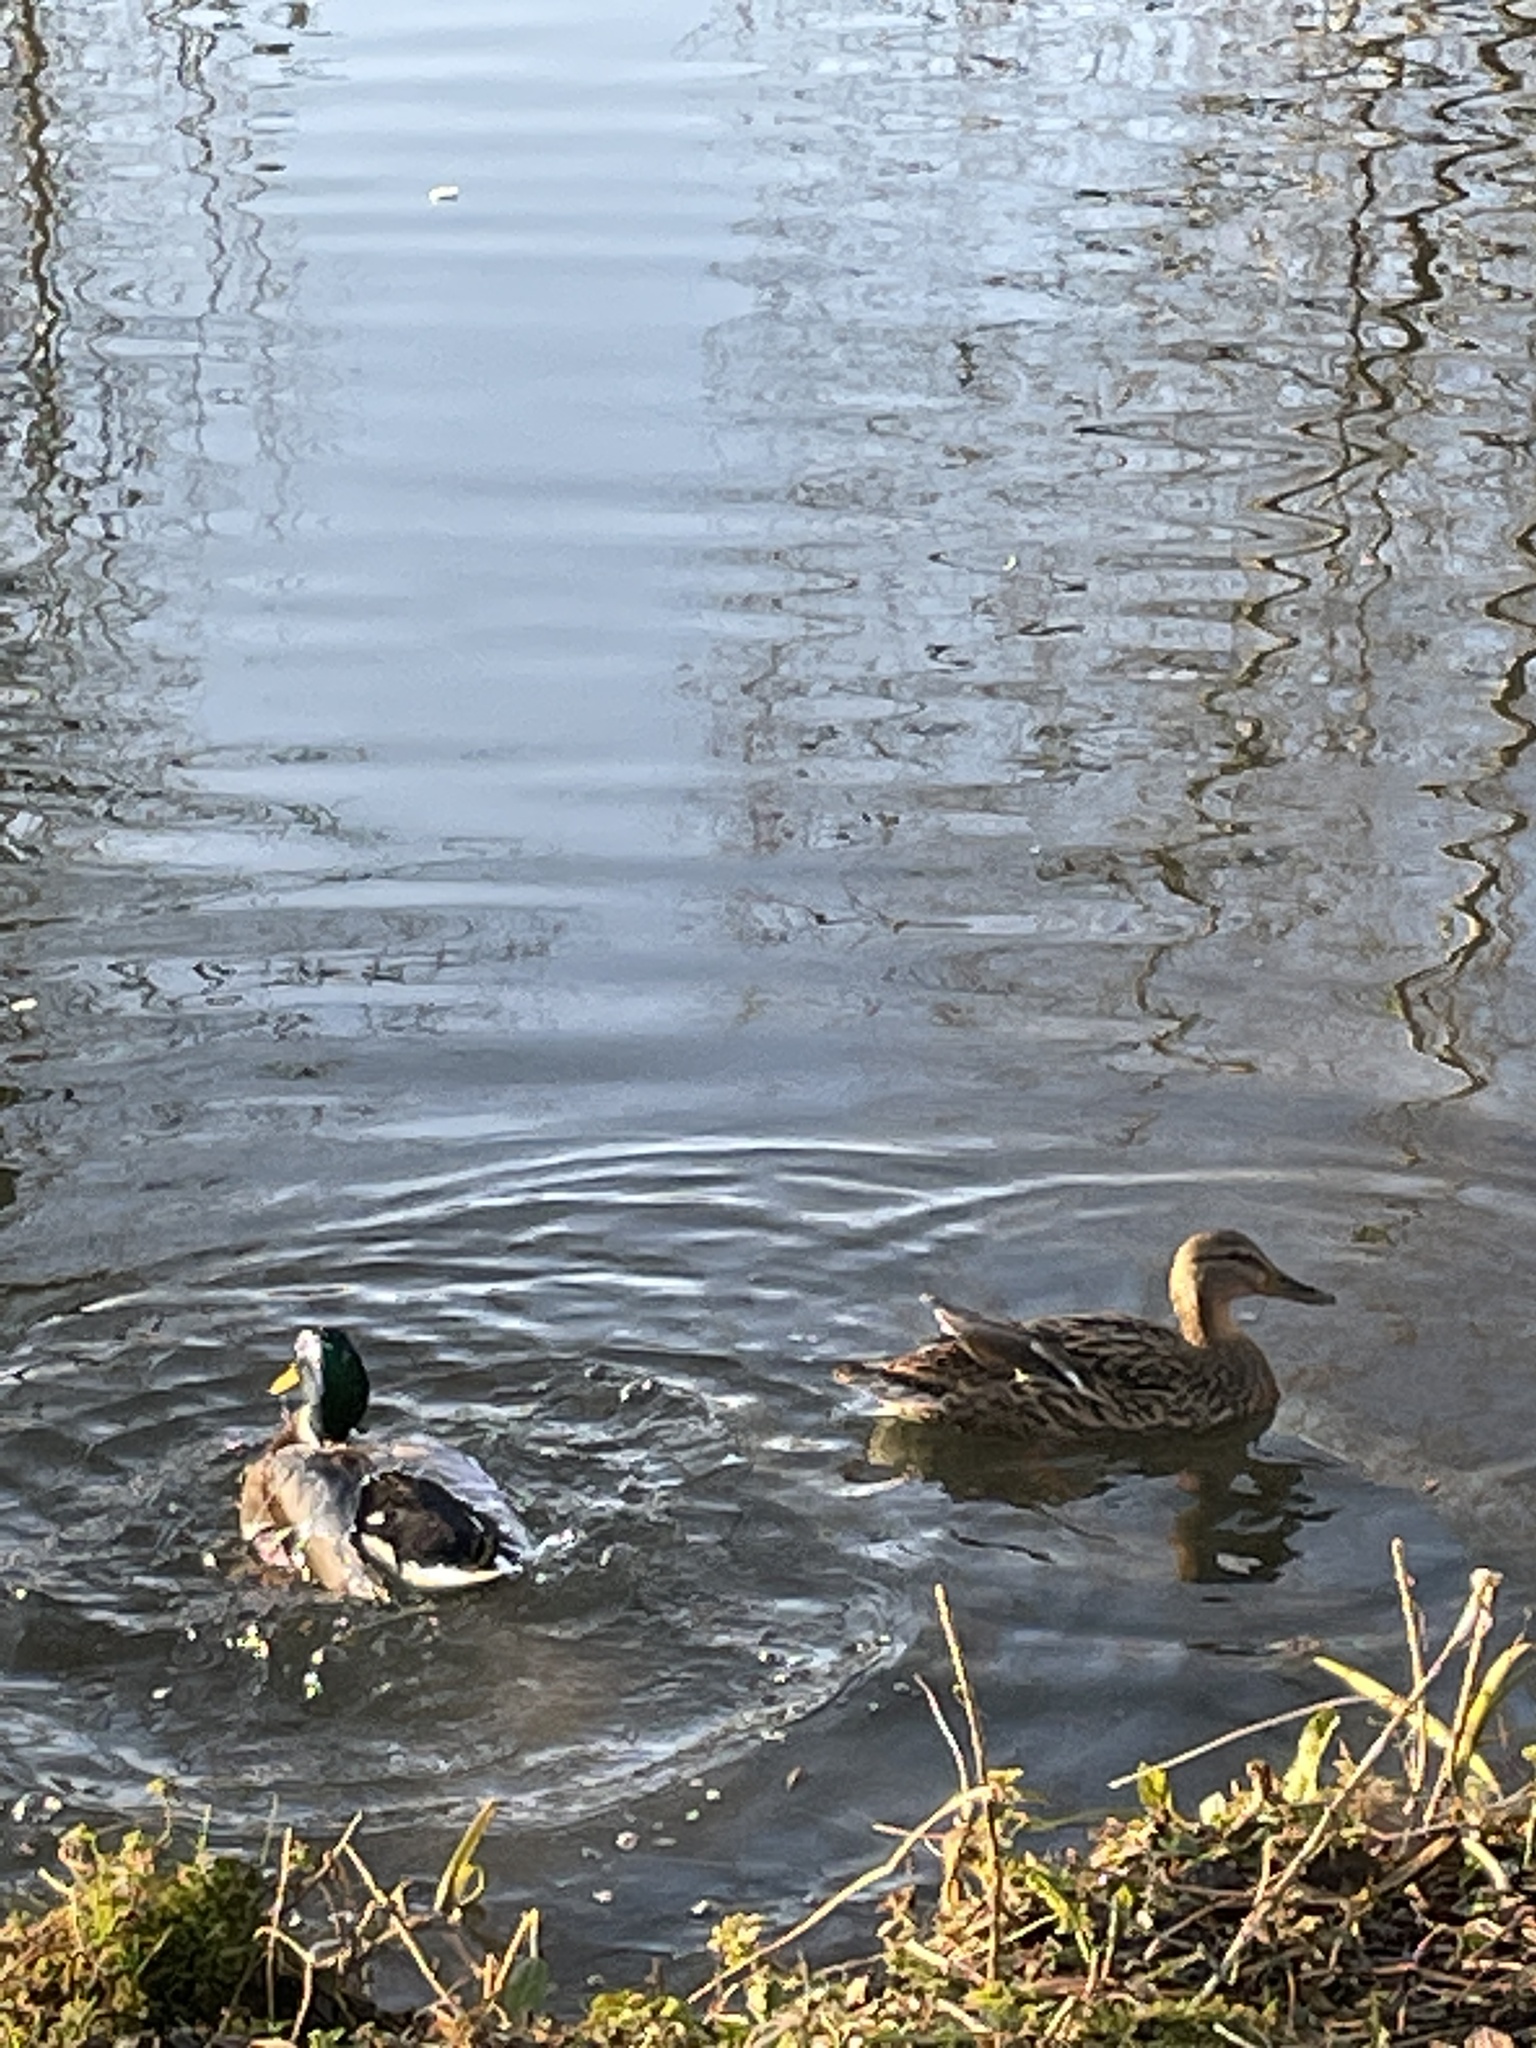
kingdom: Animalia
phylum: Chordata
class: Aves
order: Anseriformes
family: Anatidae
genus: Anas
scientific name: Anas platyrhynchos
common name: Mallard
